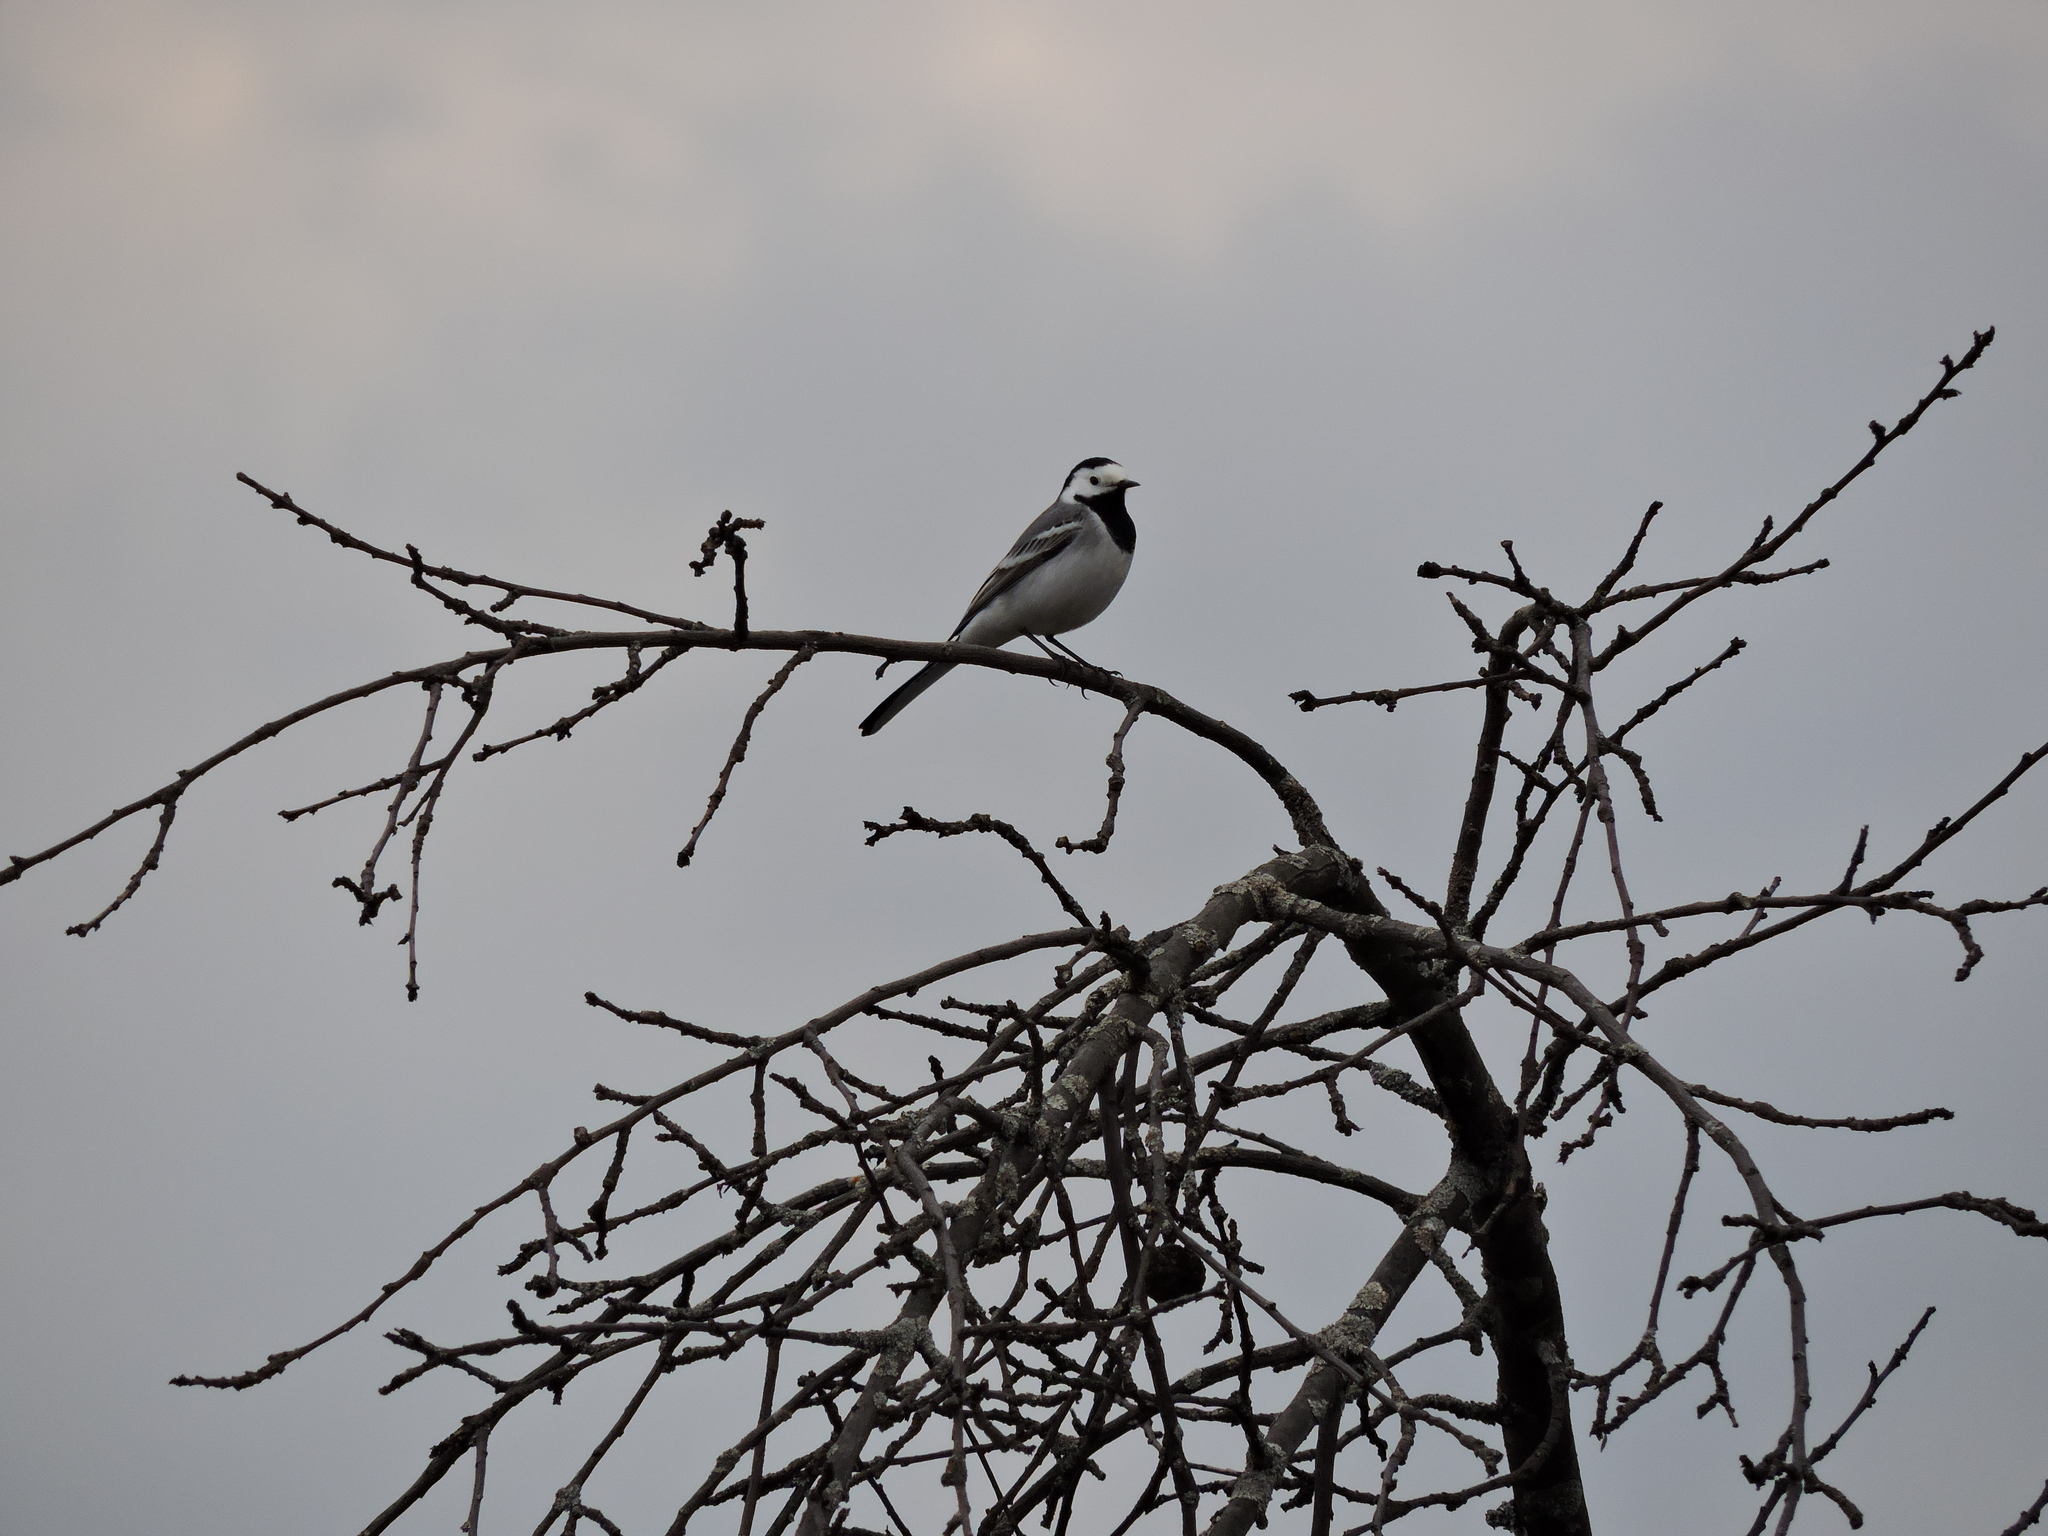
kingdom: Animalia
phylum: Chordata
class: Aves
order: Passeriformes
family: Motacillidae
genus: Motacilla
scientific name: Motacilla alba
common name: White wagtail
